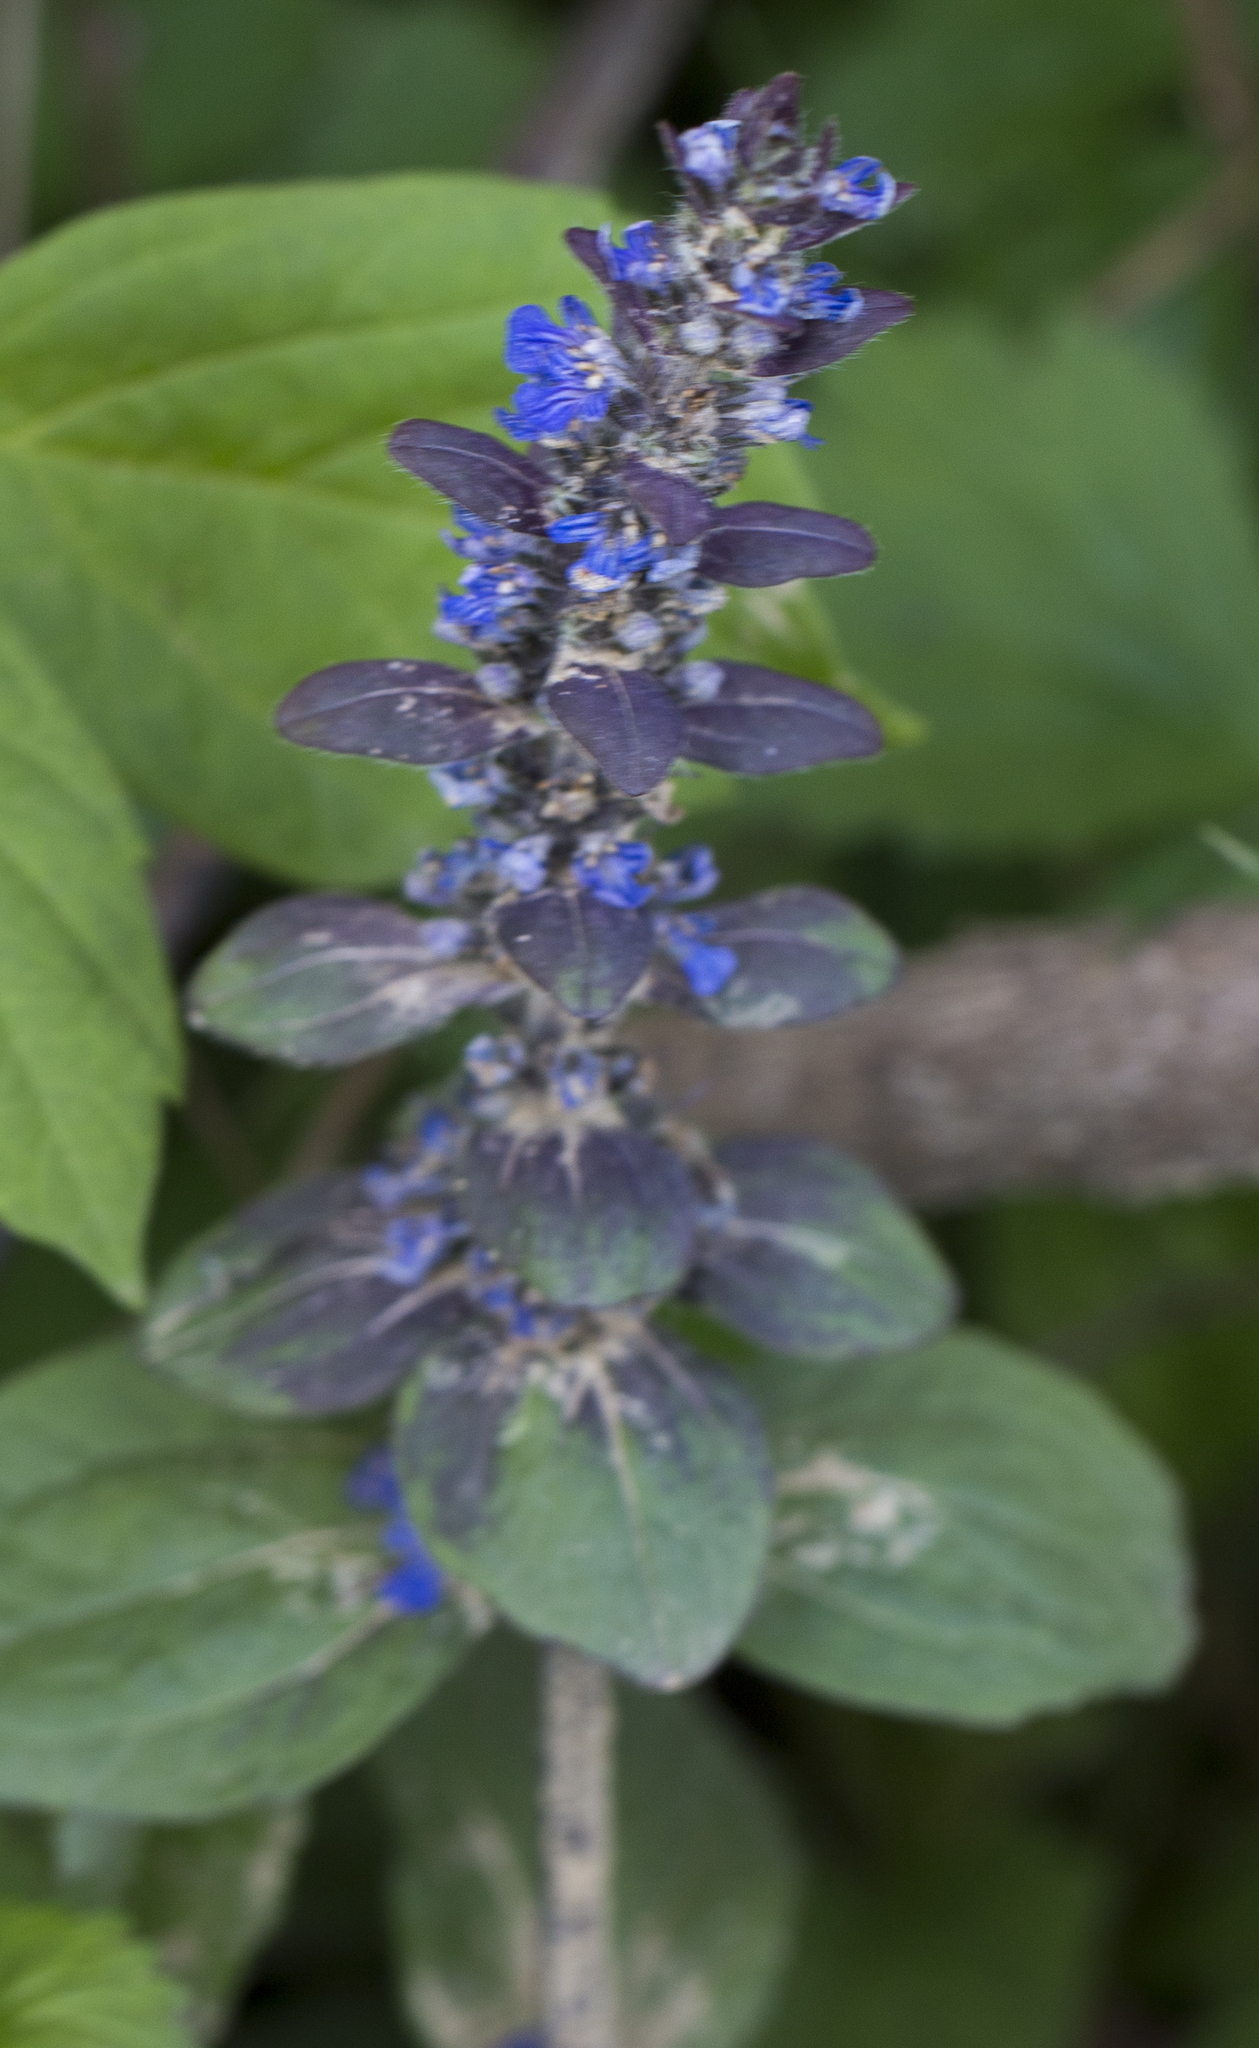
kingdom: Plantae
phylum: Tracheophyta
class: Magnoliopsida
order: Lamiales
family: Lamiaceae
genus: Ajuga
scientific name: Ajuga reptans
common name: Bugle
